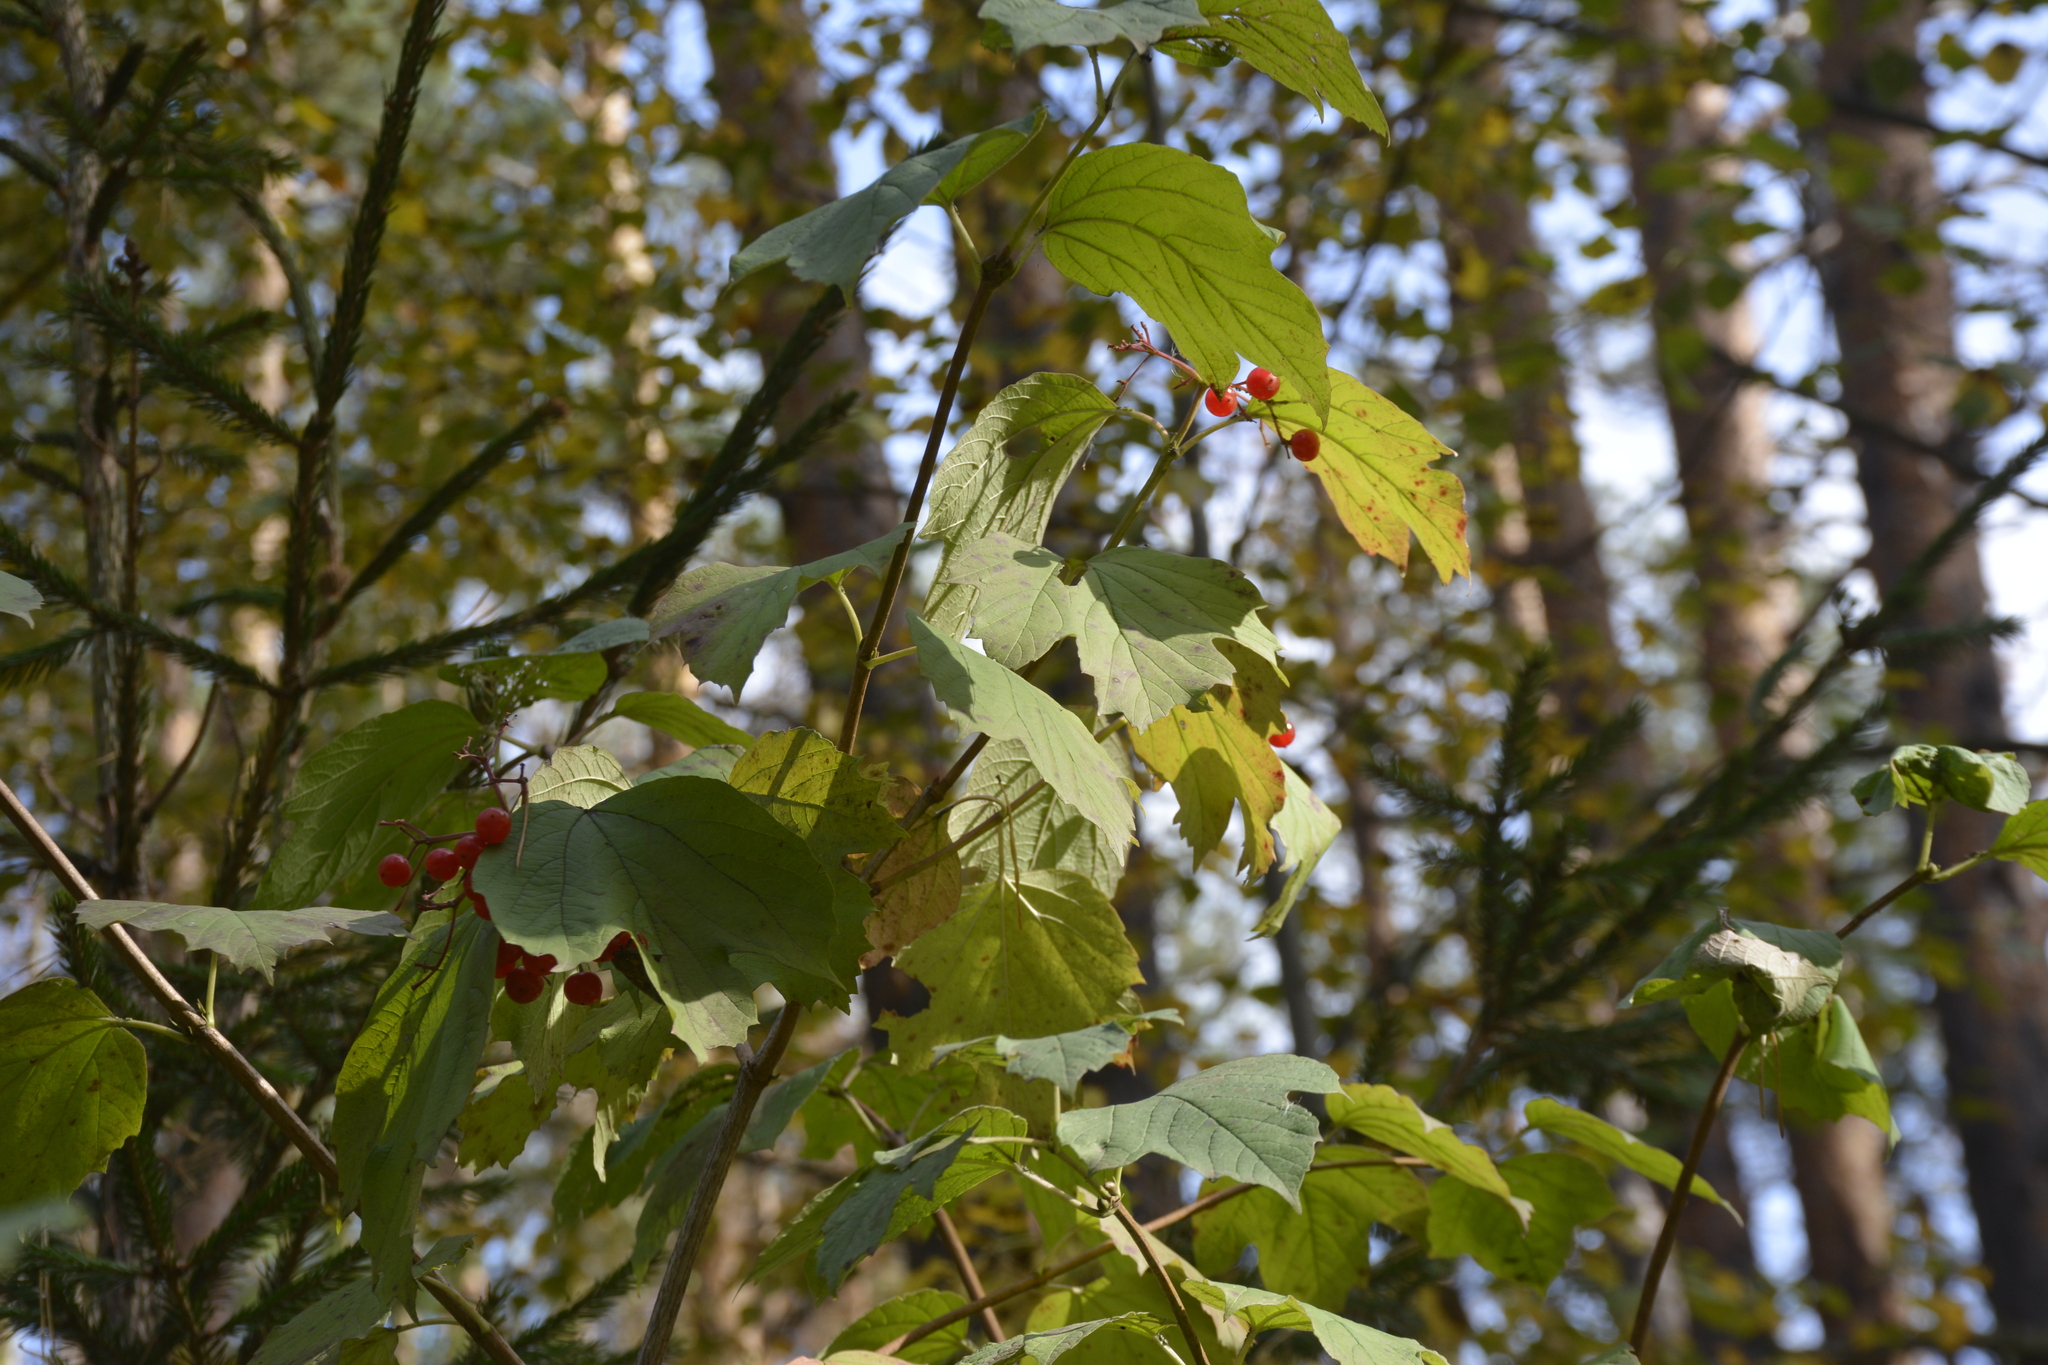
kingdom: Plantae
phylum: Tracheophyta
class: Magnoliopsida
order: Dipsacales
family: Viburnaceae
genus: Viburnum
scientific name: Viburnum opulus
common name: Guelder-rose
